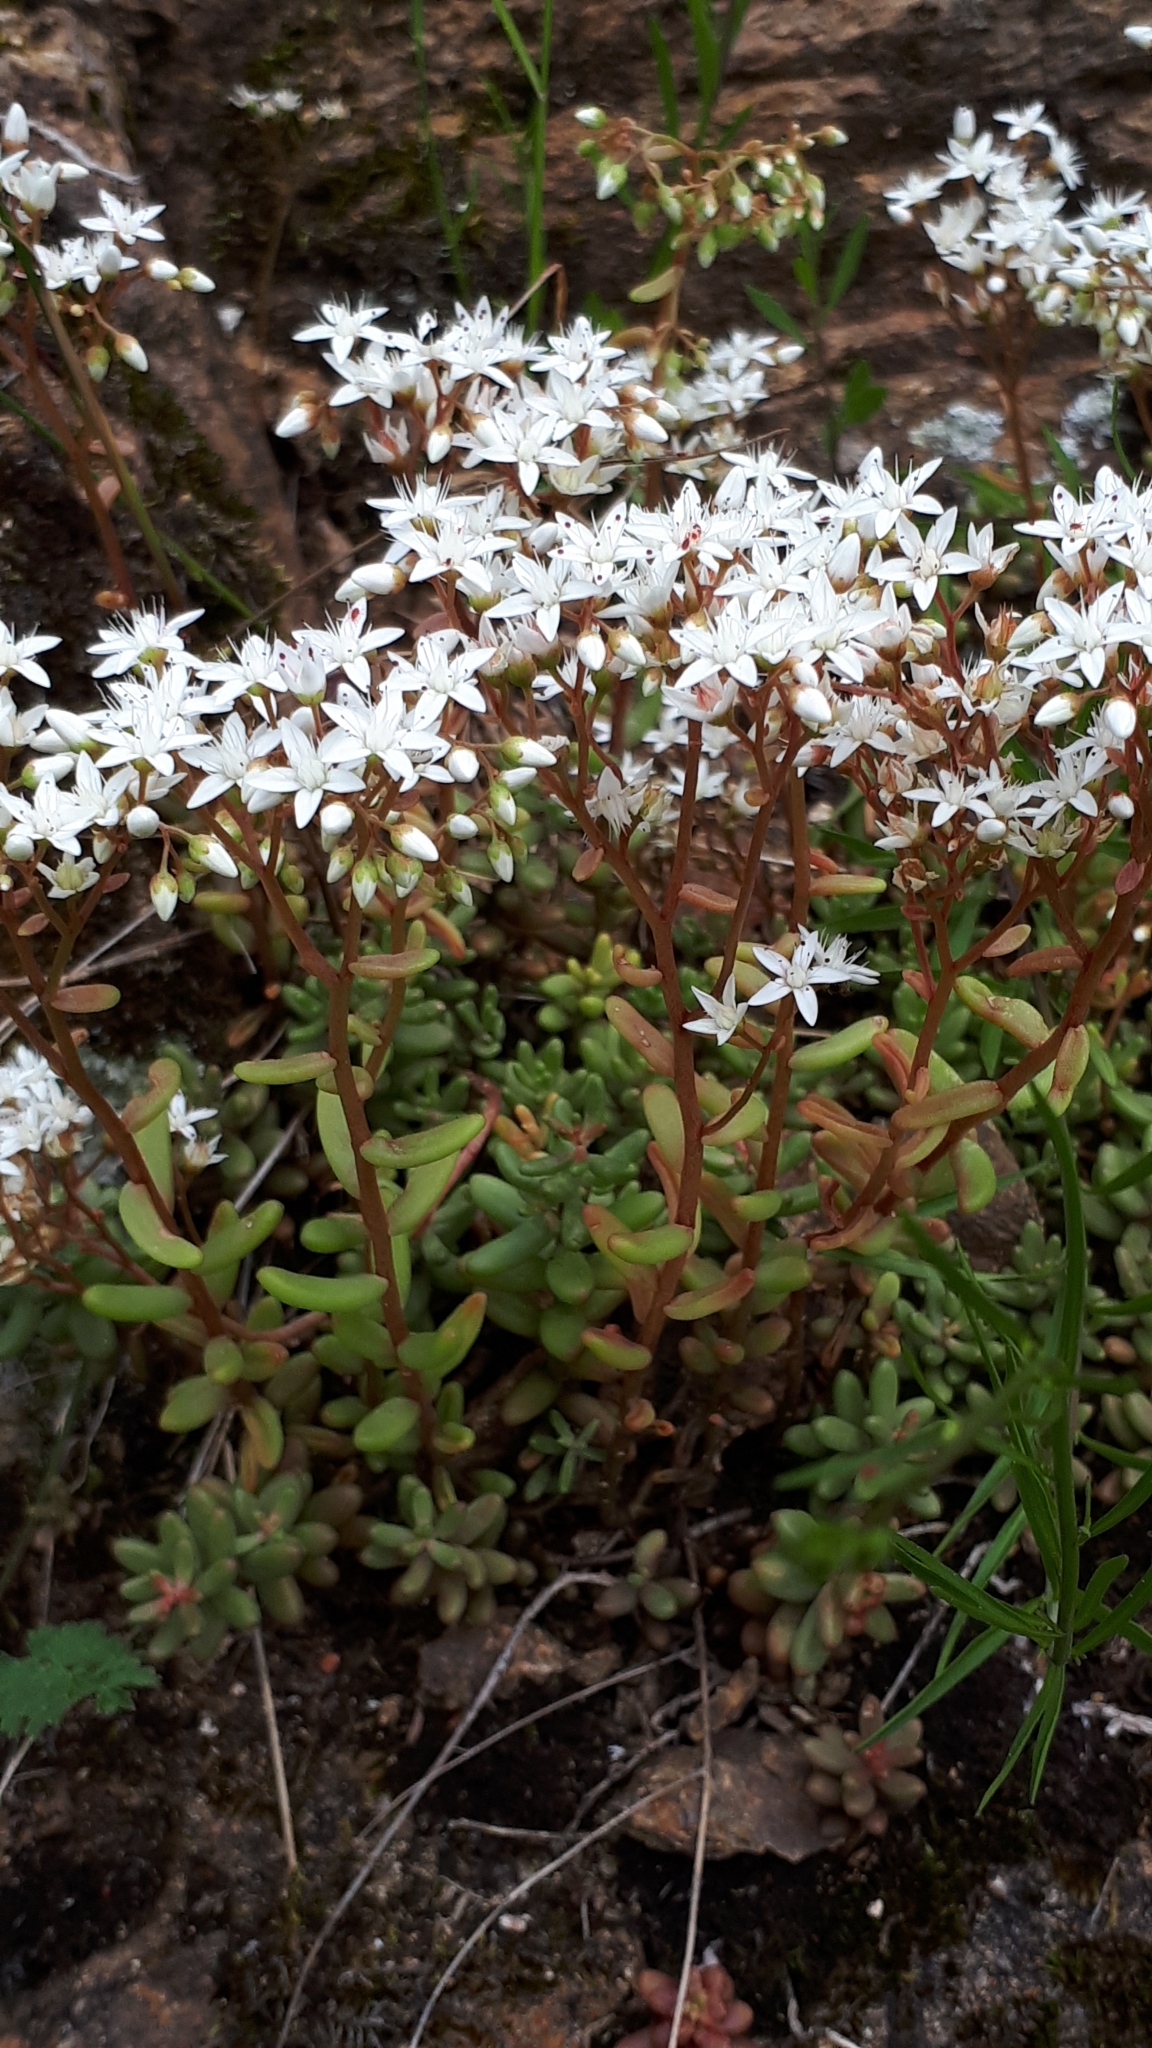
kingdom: Plantae
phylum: Tracheophyta
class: Magnoliopsida
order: Saxifragales
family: Crassulaceae
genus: Sedum
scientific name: Sedum album
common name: White stonecrop
